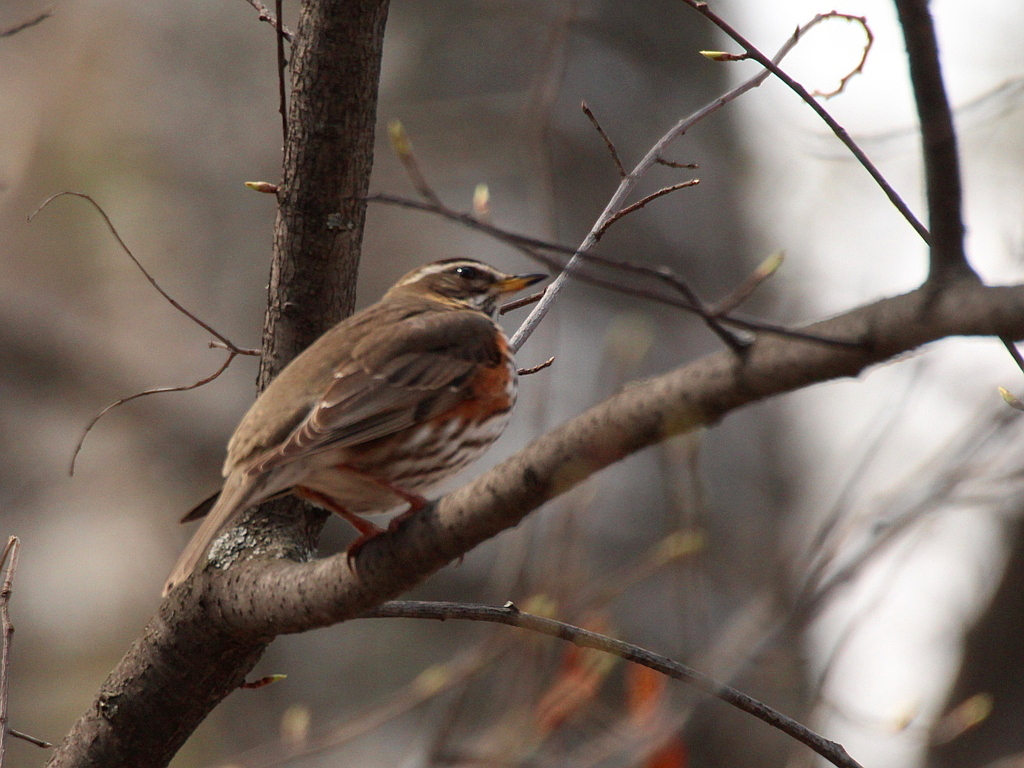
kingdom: Animalia
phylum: Chordata
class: Aves
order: Passeriformes
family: Turdidae
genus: Turdus
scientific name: Turdus iliacus
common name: Redwing
